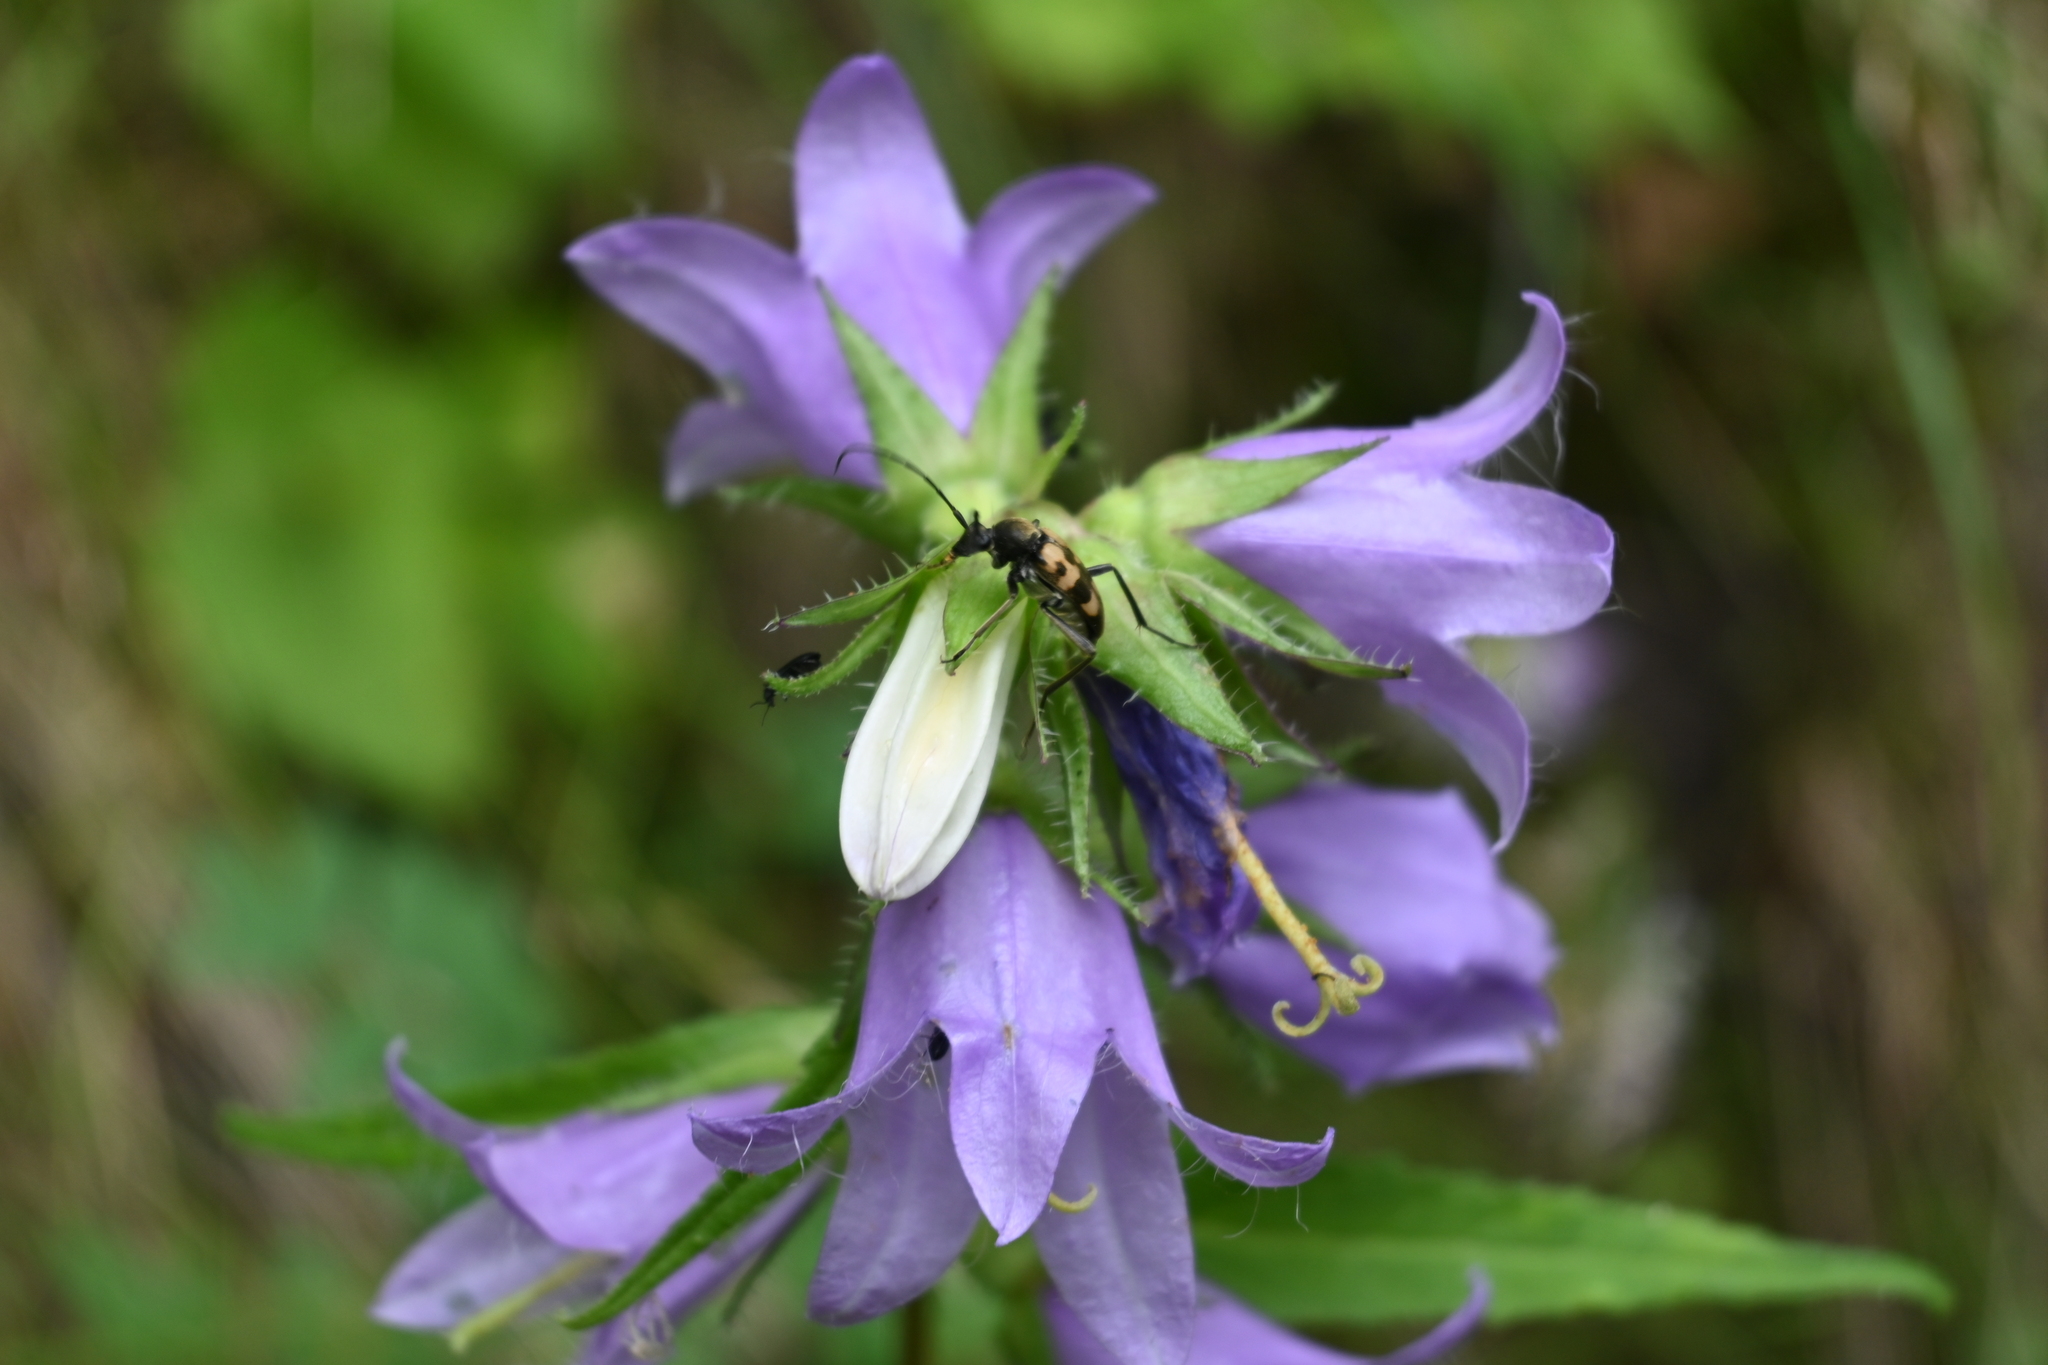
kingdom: Plantae
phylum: Tracheophyta
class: Magnoliopsida
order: Asterales
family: Campanulaceae
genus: Campanula
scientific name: Campanula trachelium
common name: Nettle-leaved bellflower
